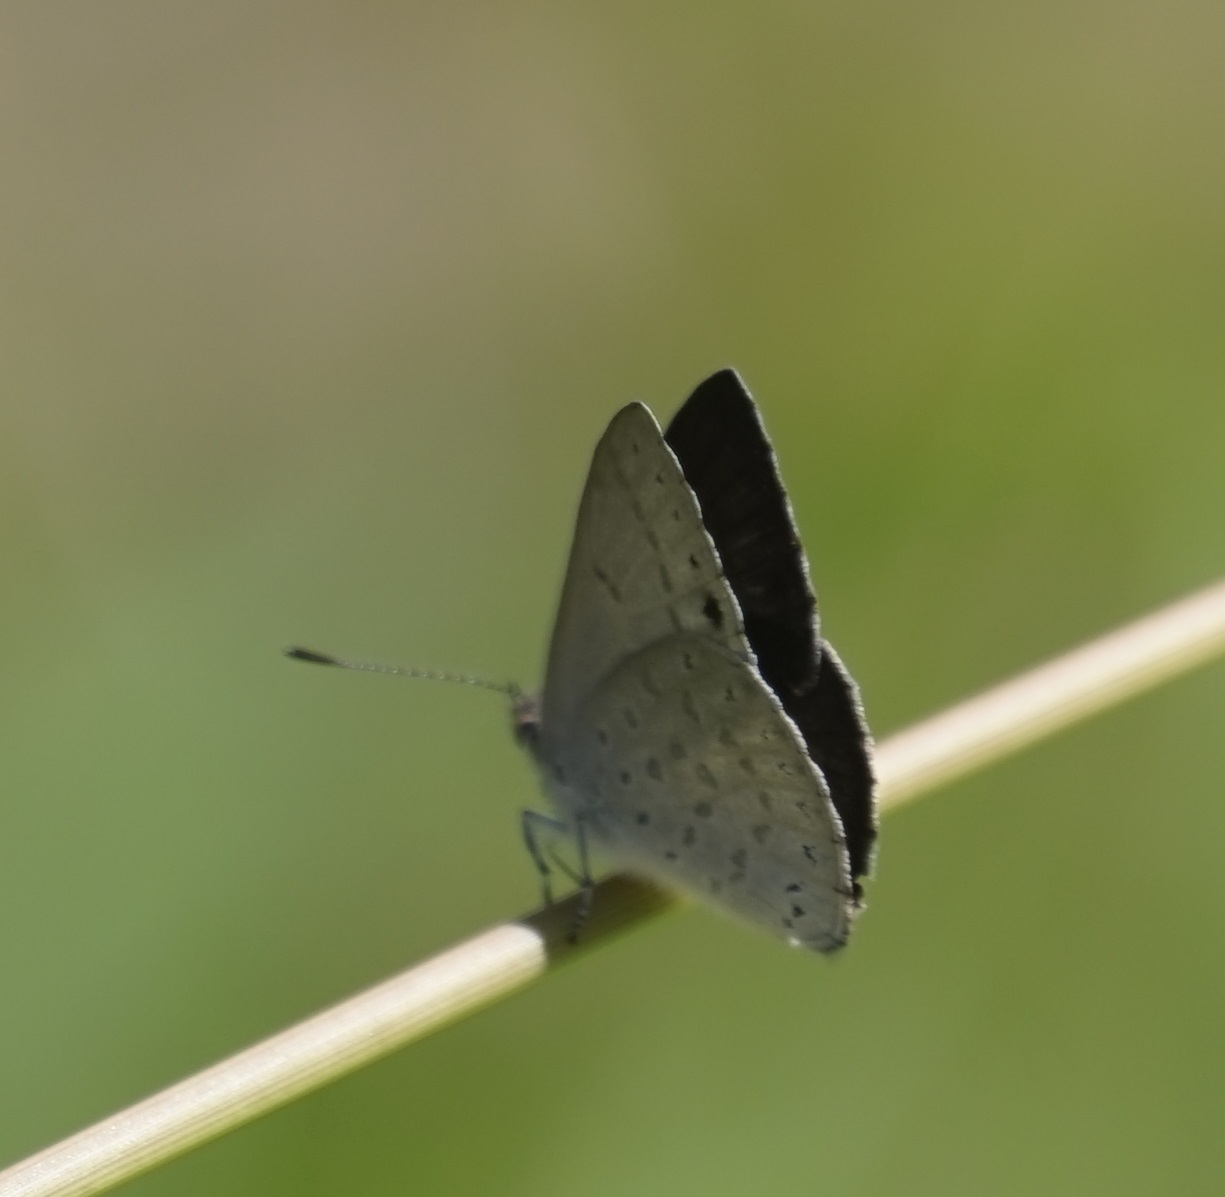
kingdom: Animalia
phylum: Arthropoda
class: Insecta
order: Lepidoptera
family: Lycaenidae
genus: Candalides
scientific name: Candalides
